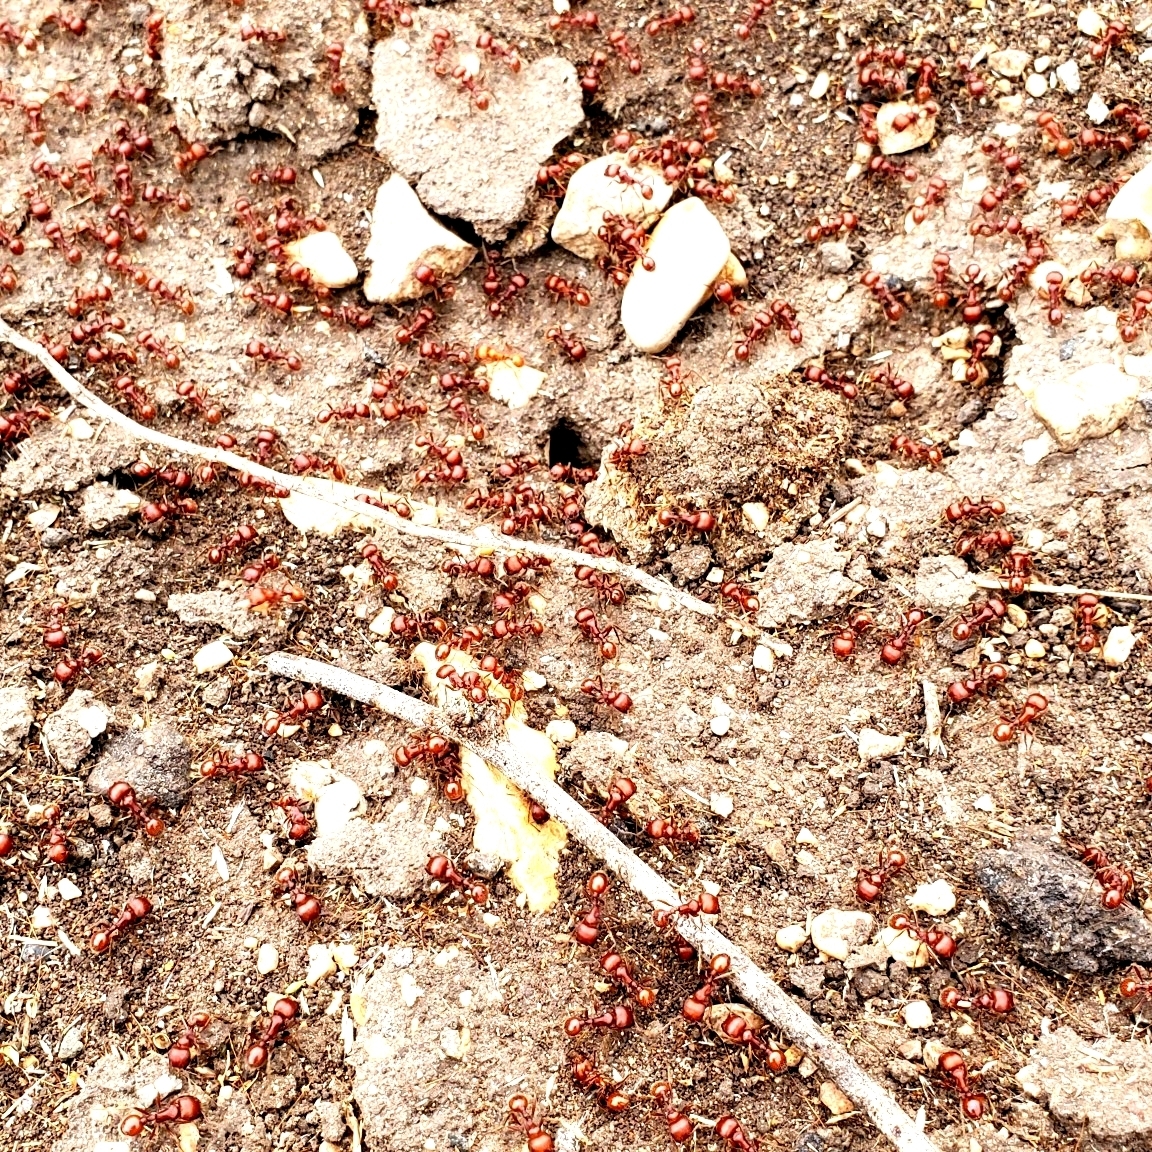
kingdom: Animalia
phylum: Arthropoda
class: Insecta
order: Hymenoptera
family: Formicidae
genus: Pogonomyrmex
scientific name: Pogonomyrmex barbatus
